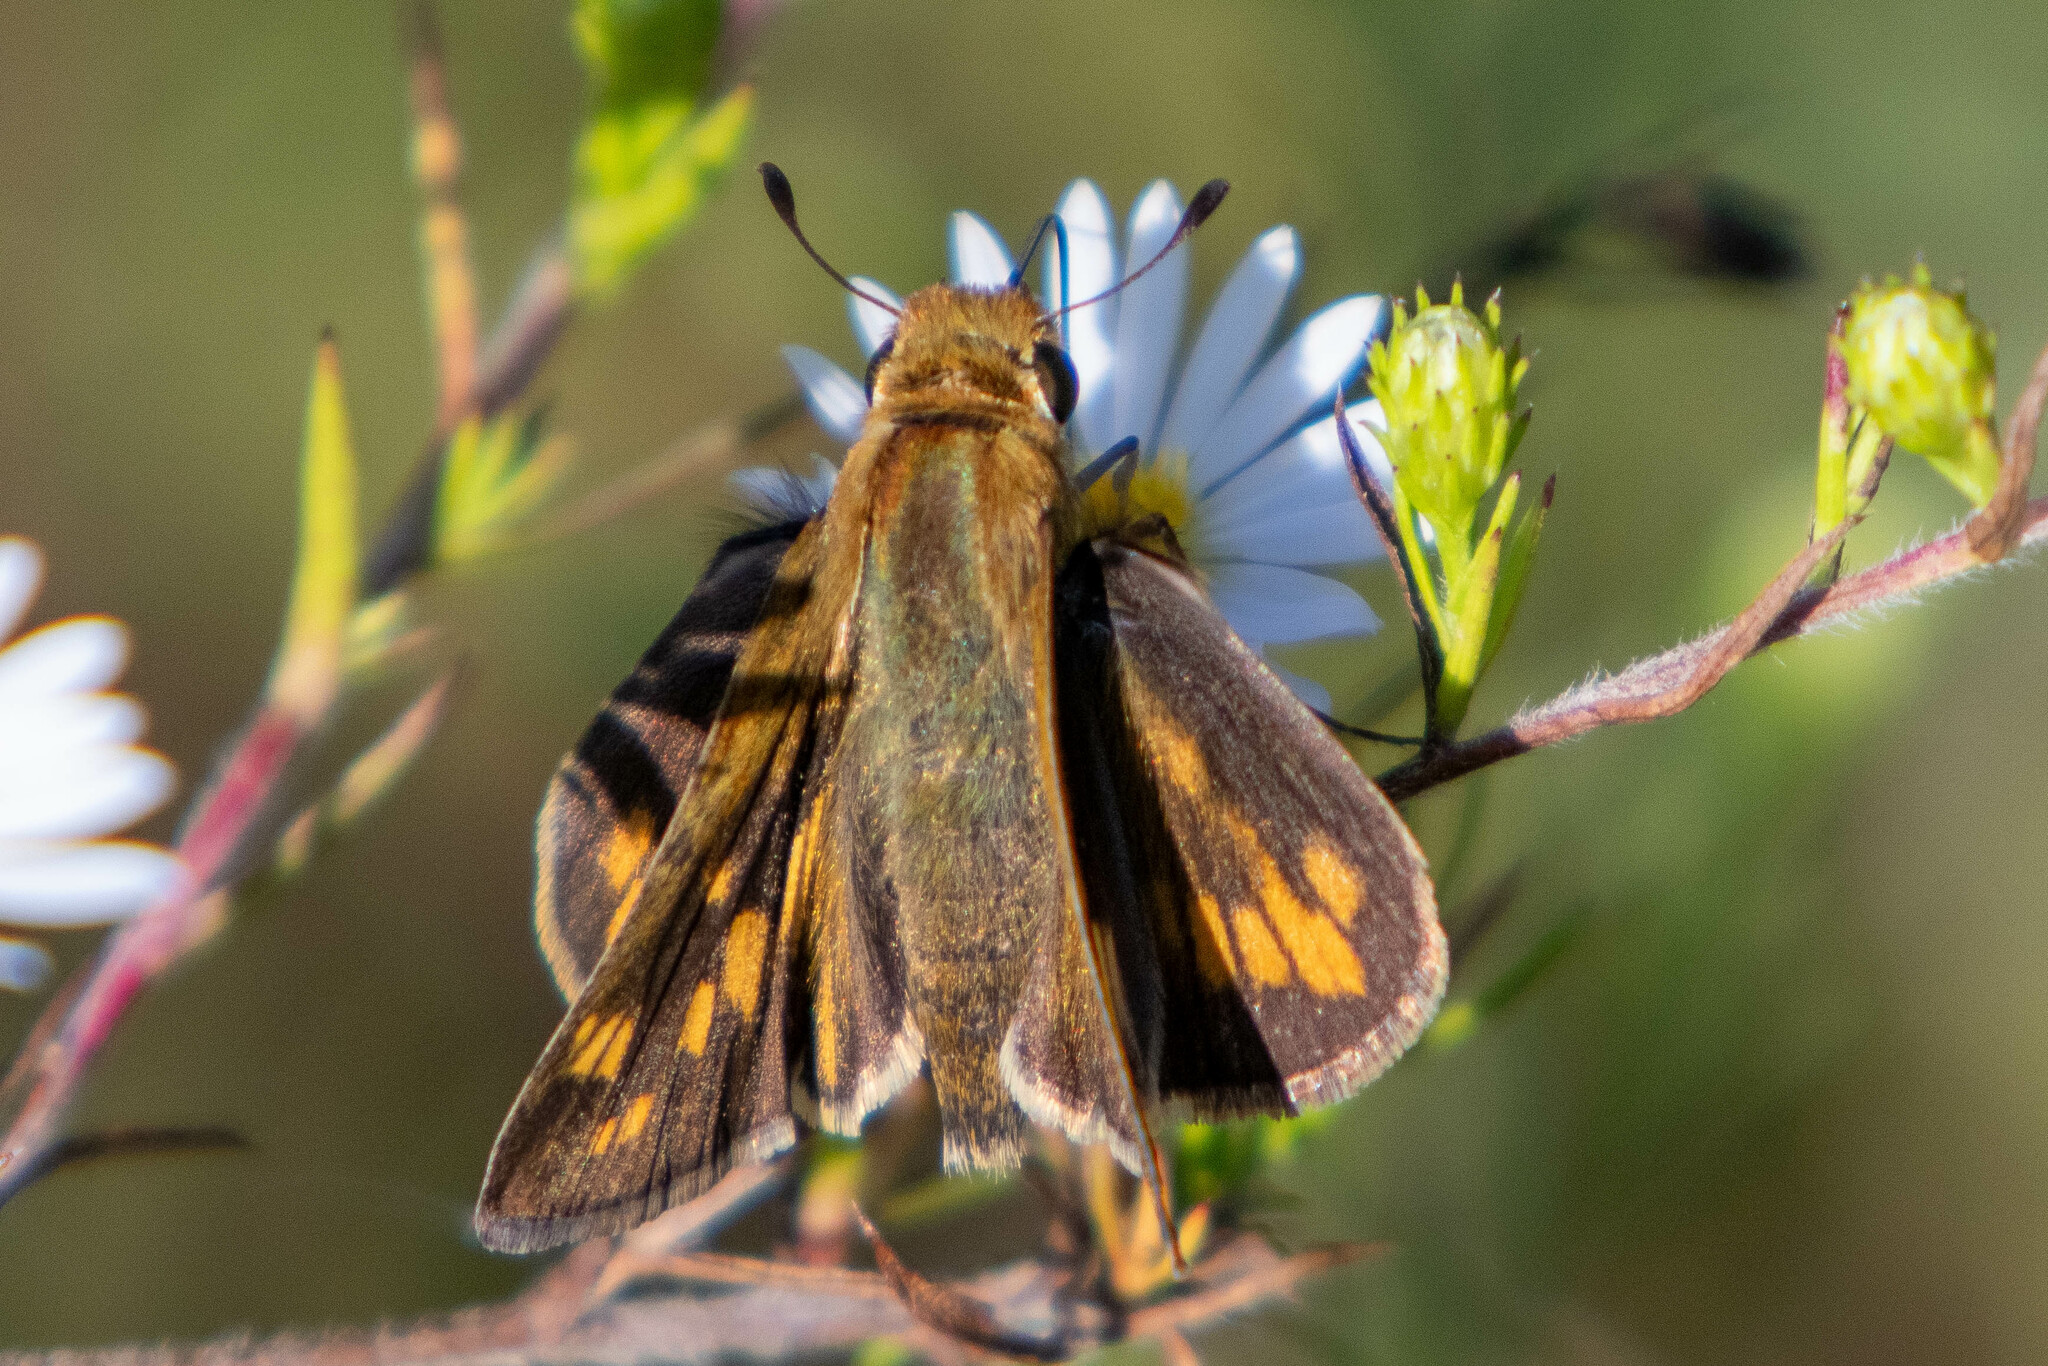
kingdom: Animalia
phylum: Arthropoda
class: Insecta
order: Lepidoptera
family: Hesperiidae
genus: Hylephila
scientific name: Hylephila phyleus
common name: Fiery skipper
